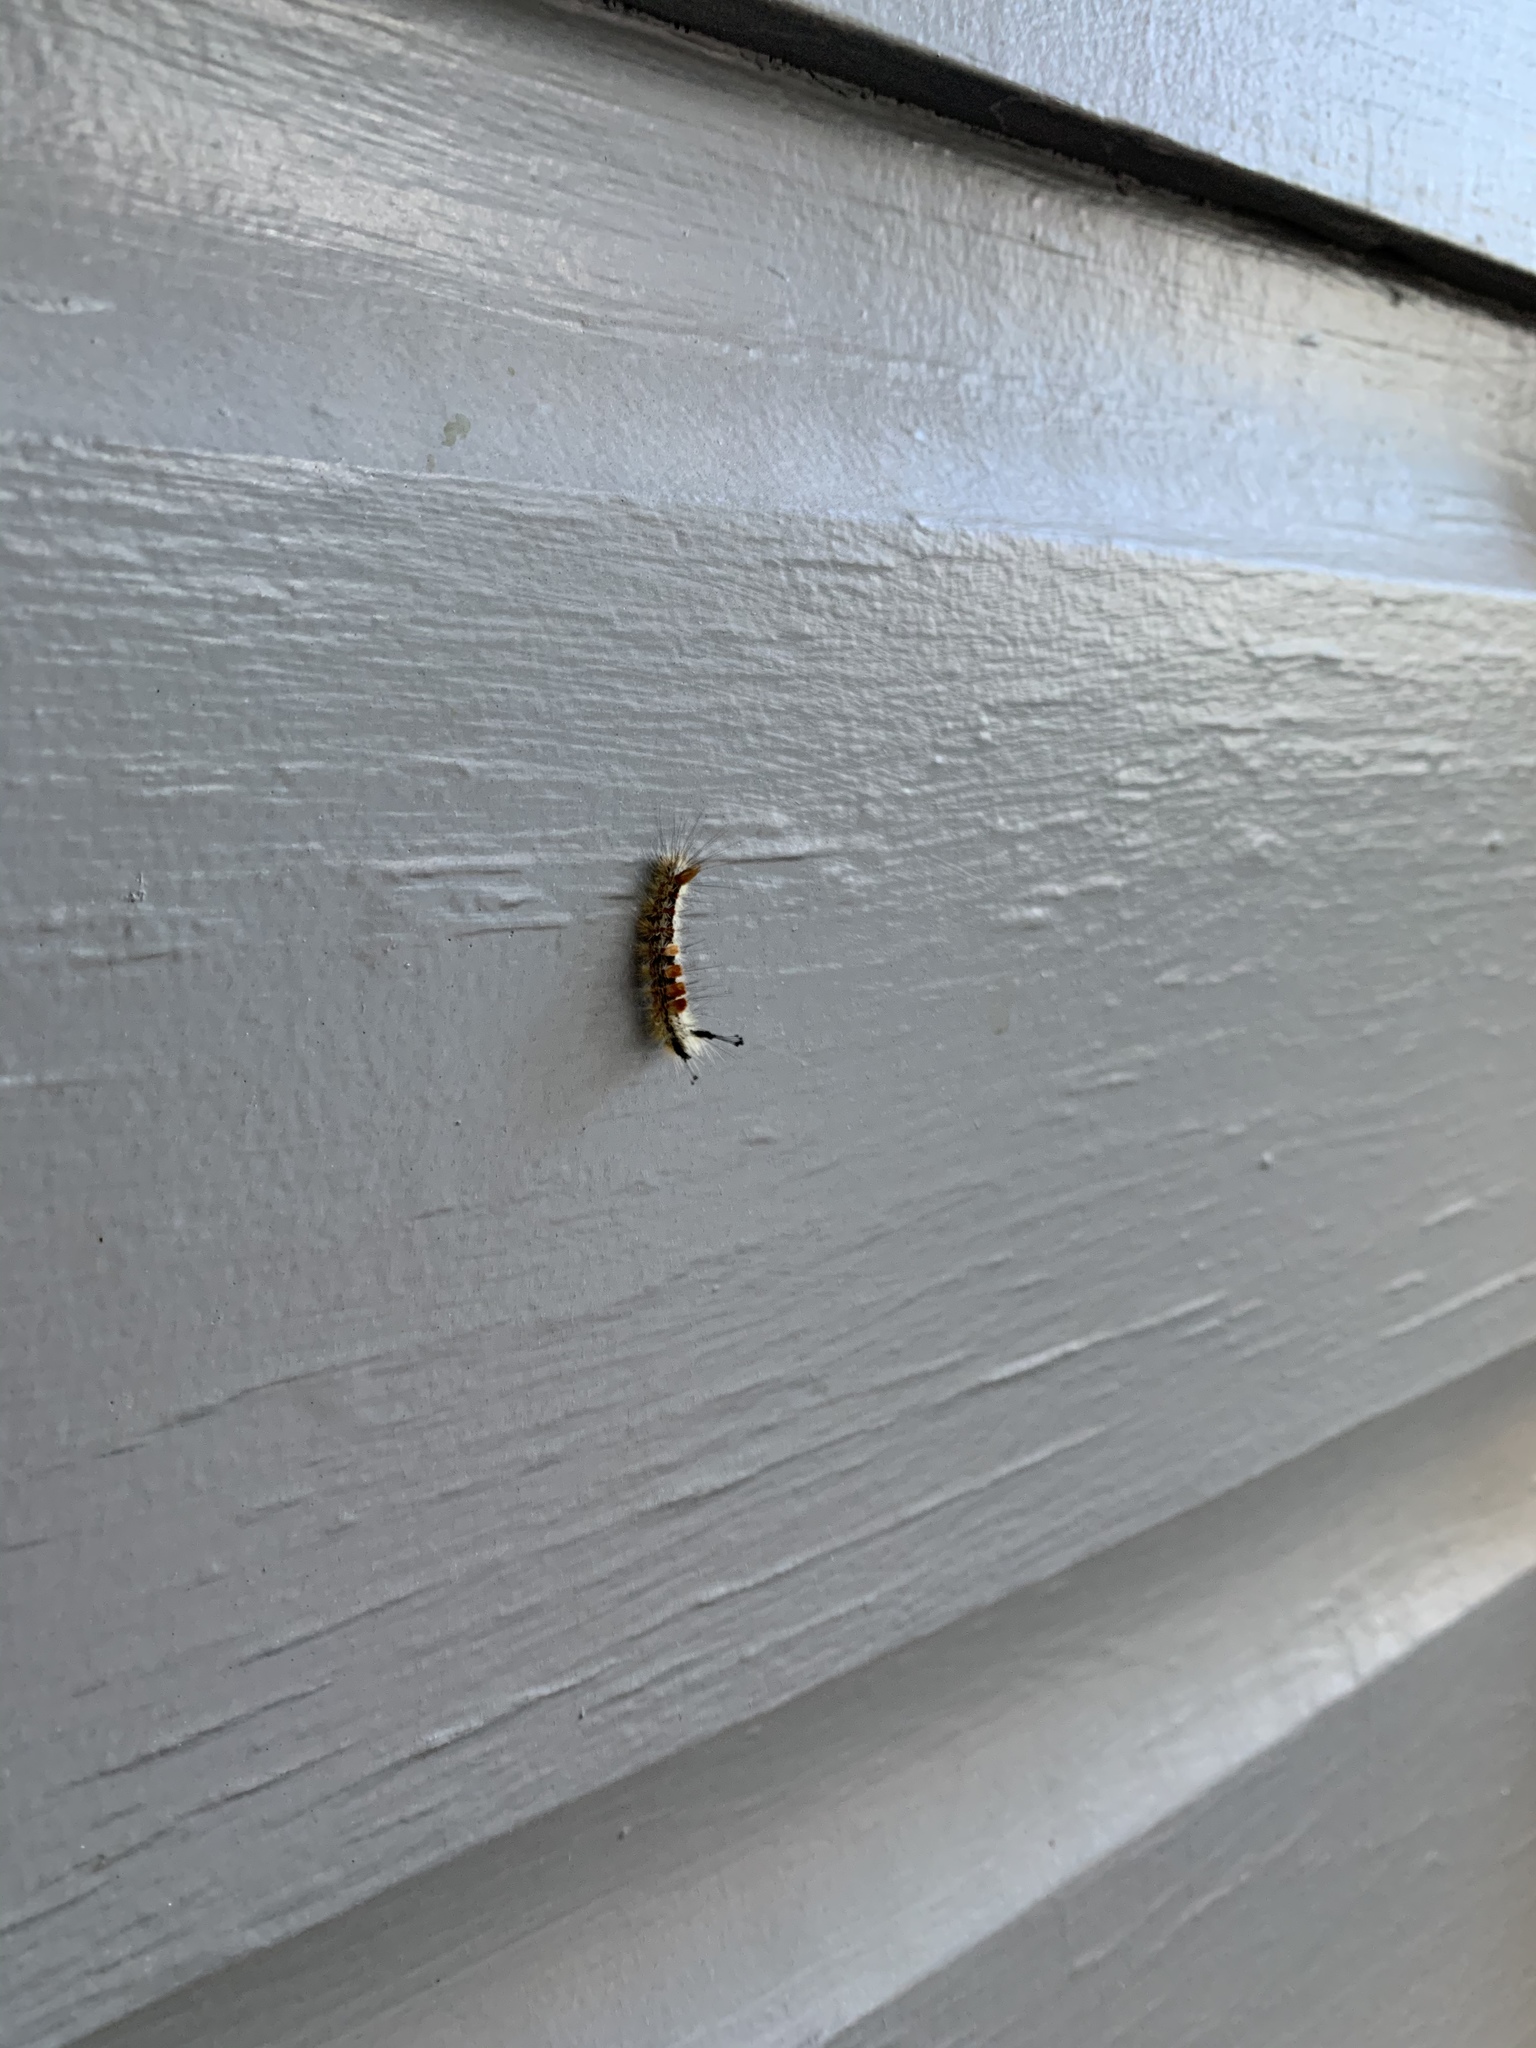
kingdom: Animalia
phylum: Arthropoda
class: Insecta
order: Lepidoptera
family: Erebidae
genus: Orgyia
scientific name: Orgyia pseudotsugata
